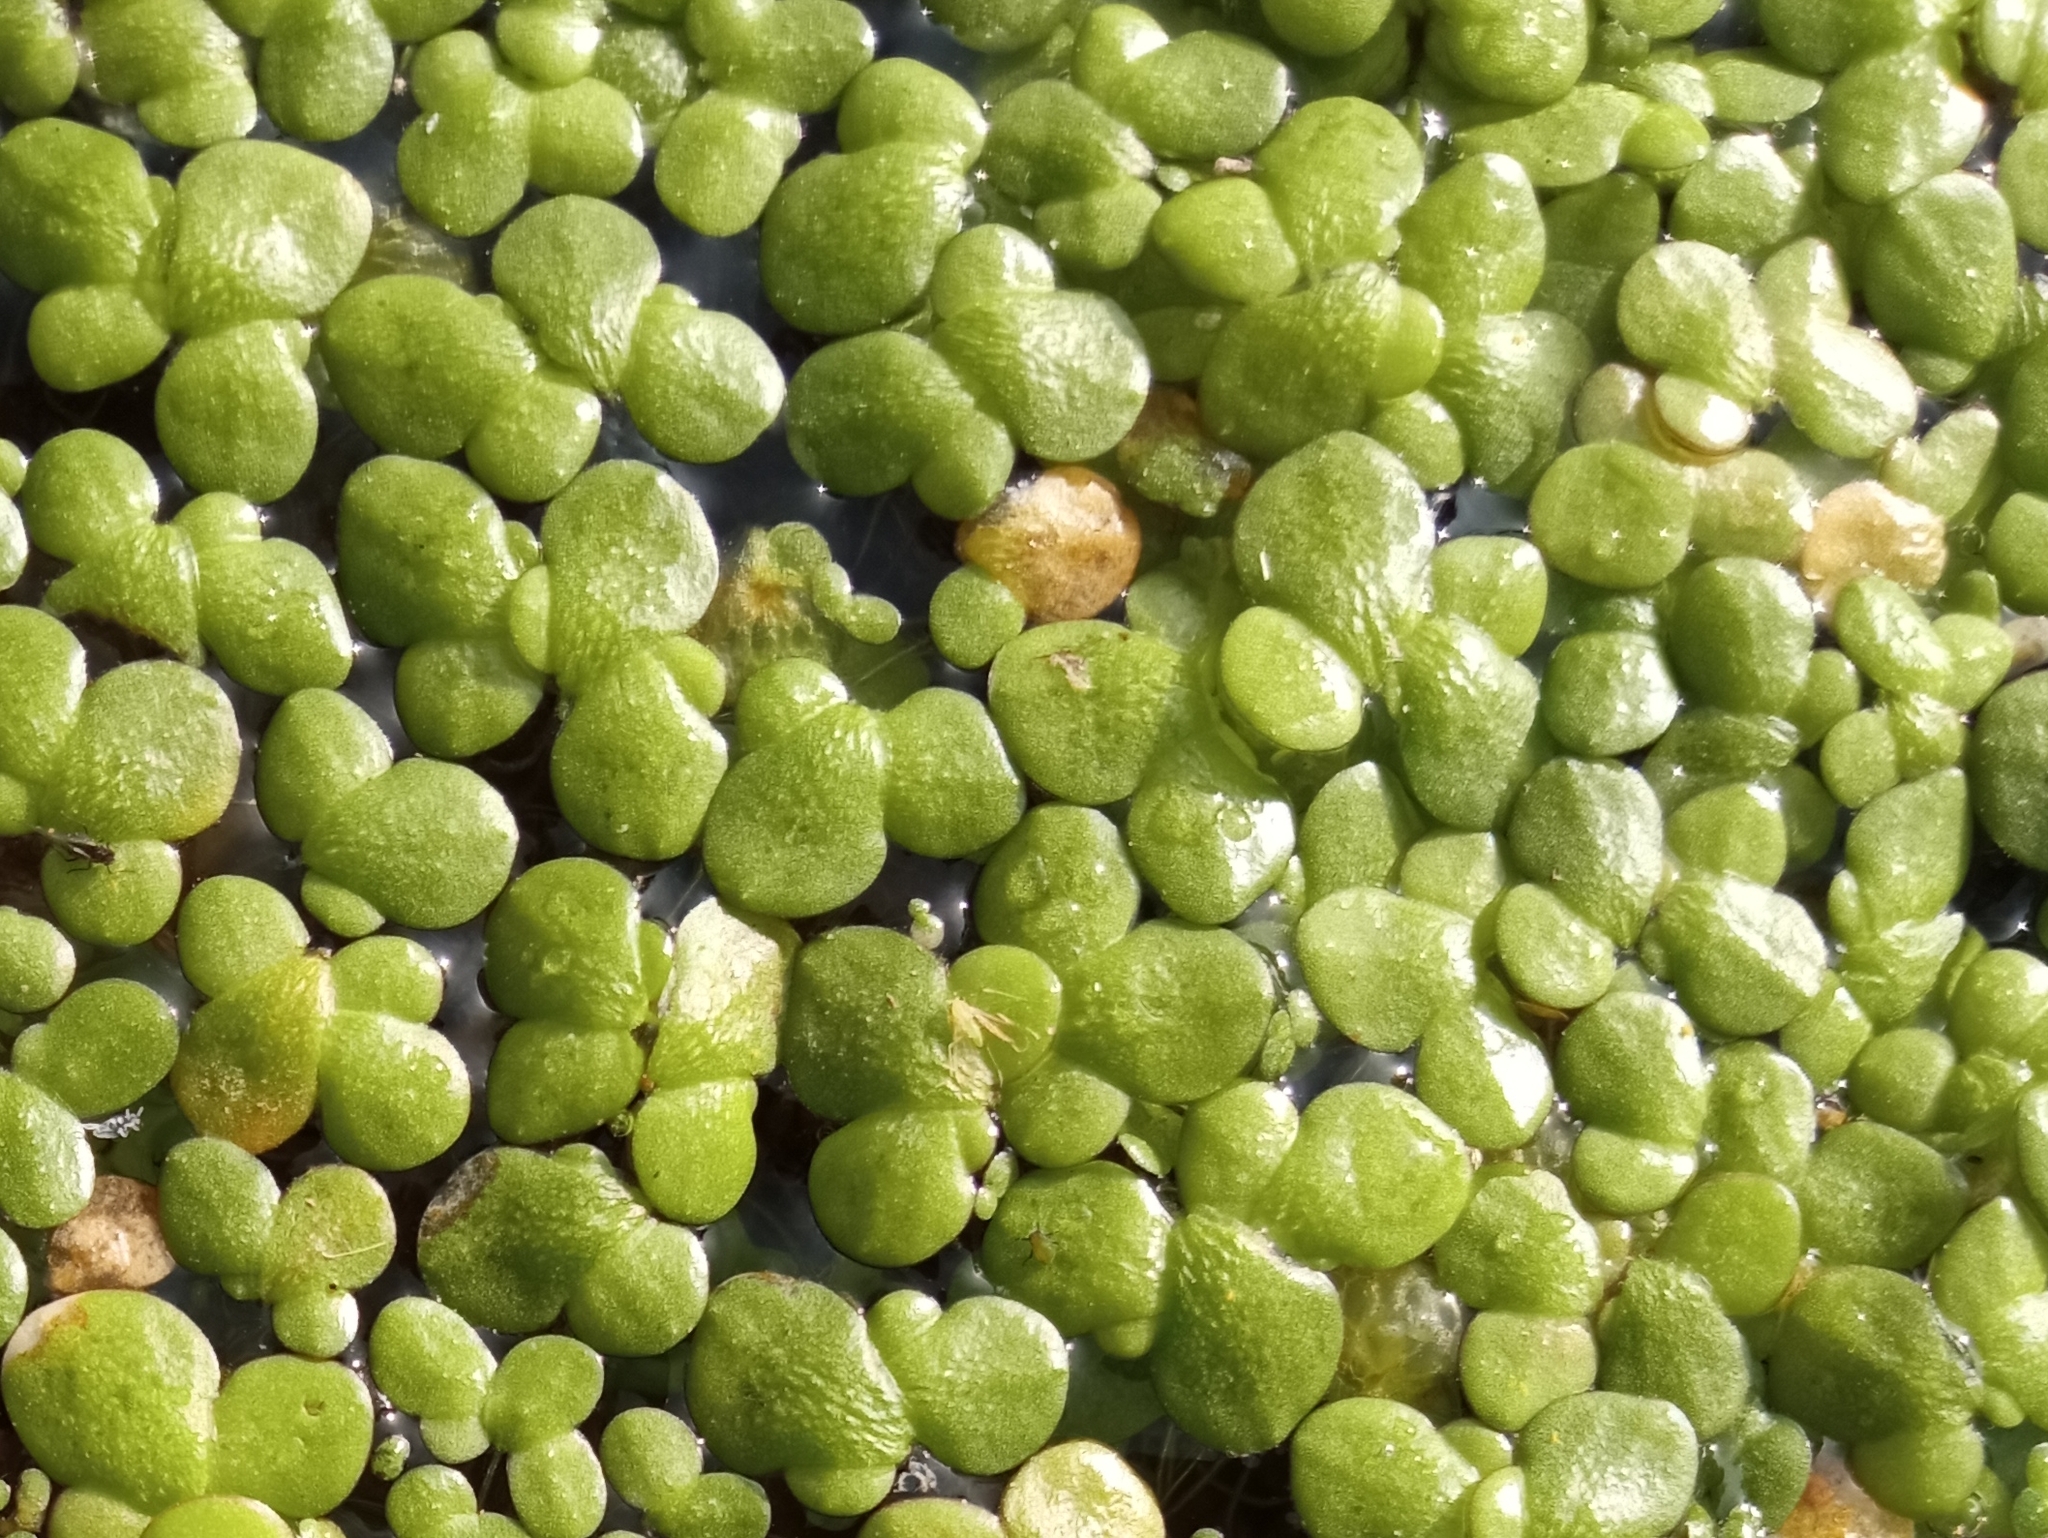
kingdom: Plantae
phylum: Tracheophyta
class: Liliopsida
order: Alismatales
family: Araceae
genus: Lemna
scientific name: Lemna gibba
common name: Fat duckweed
